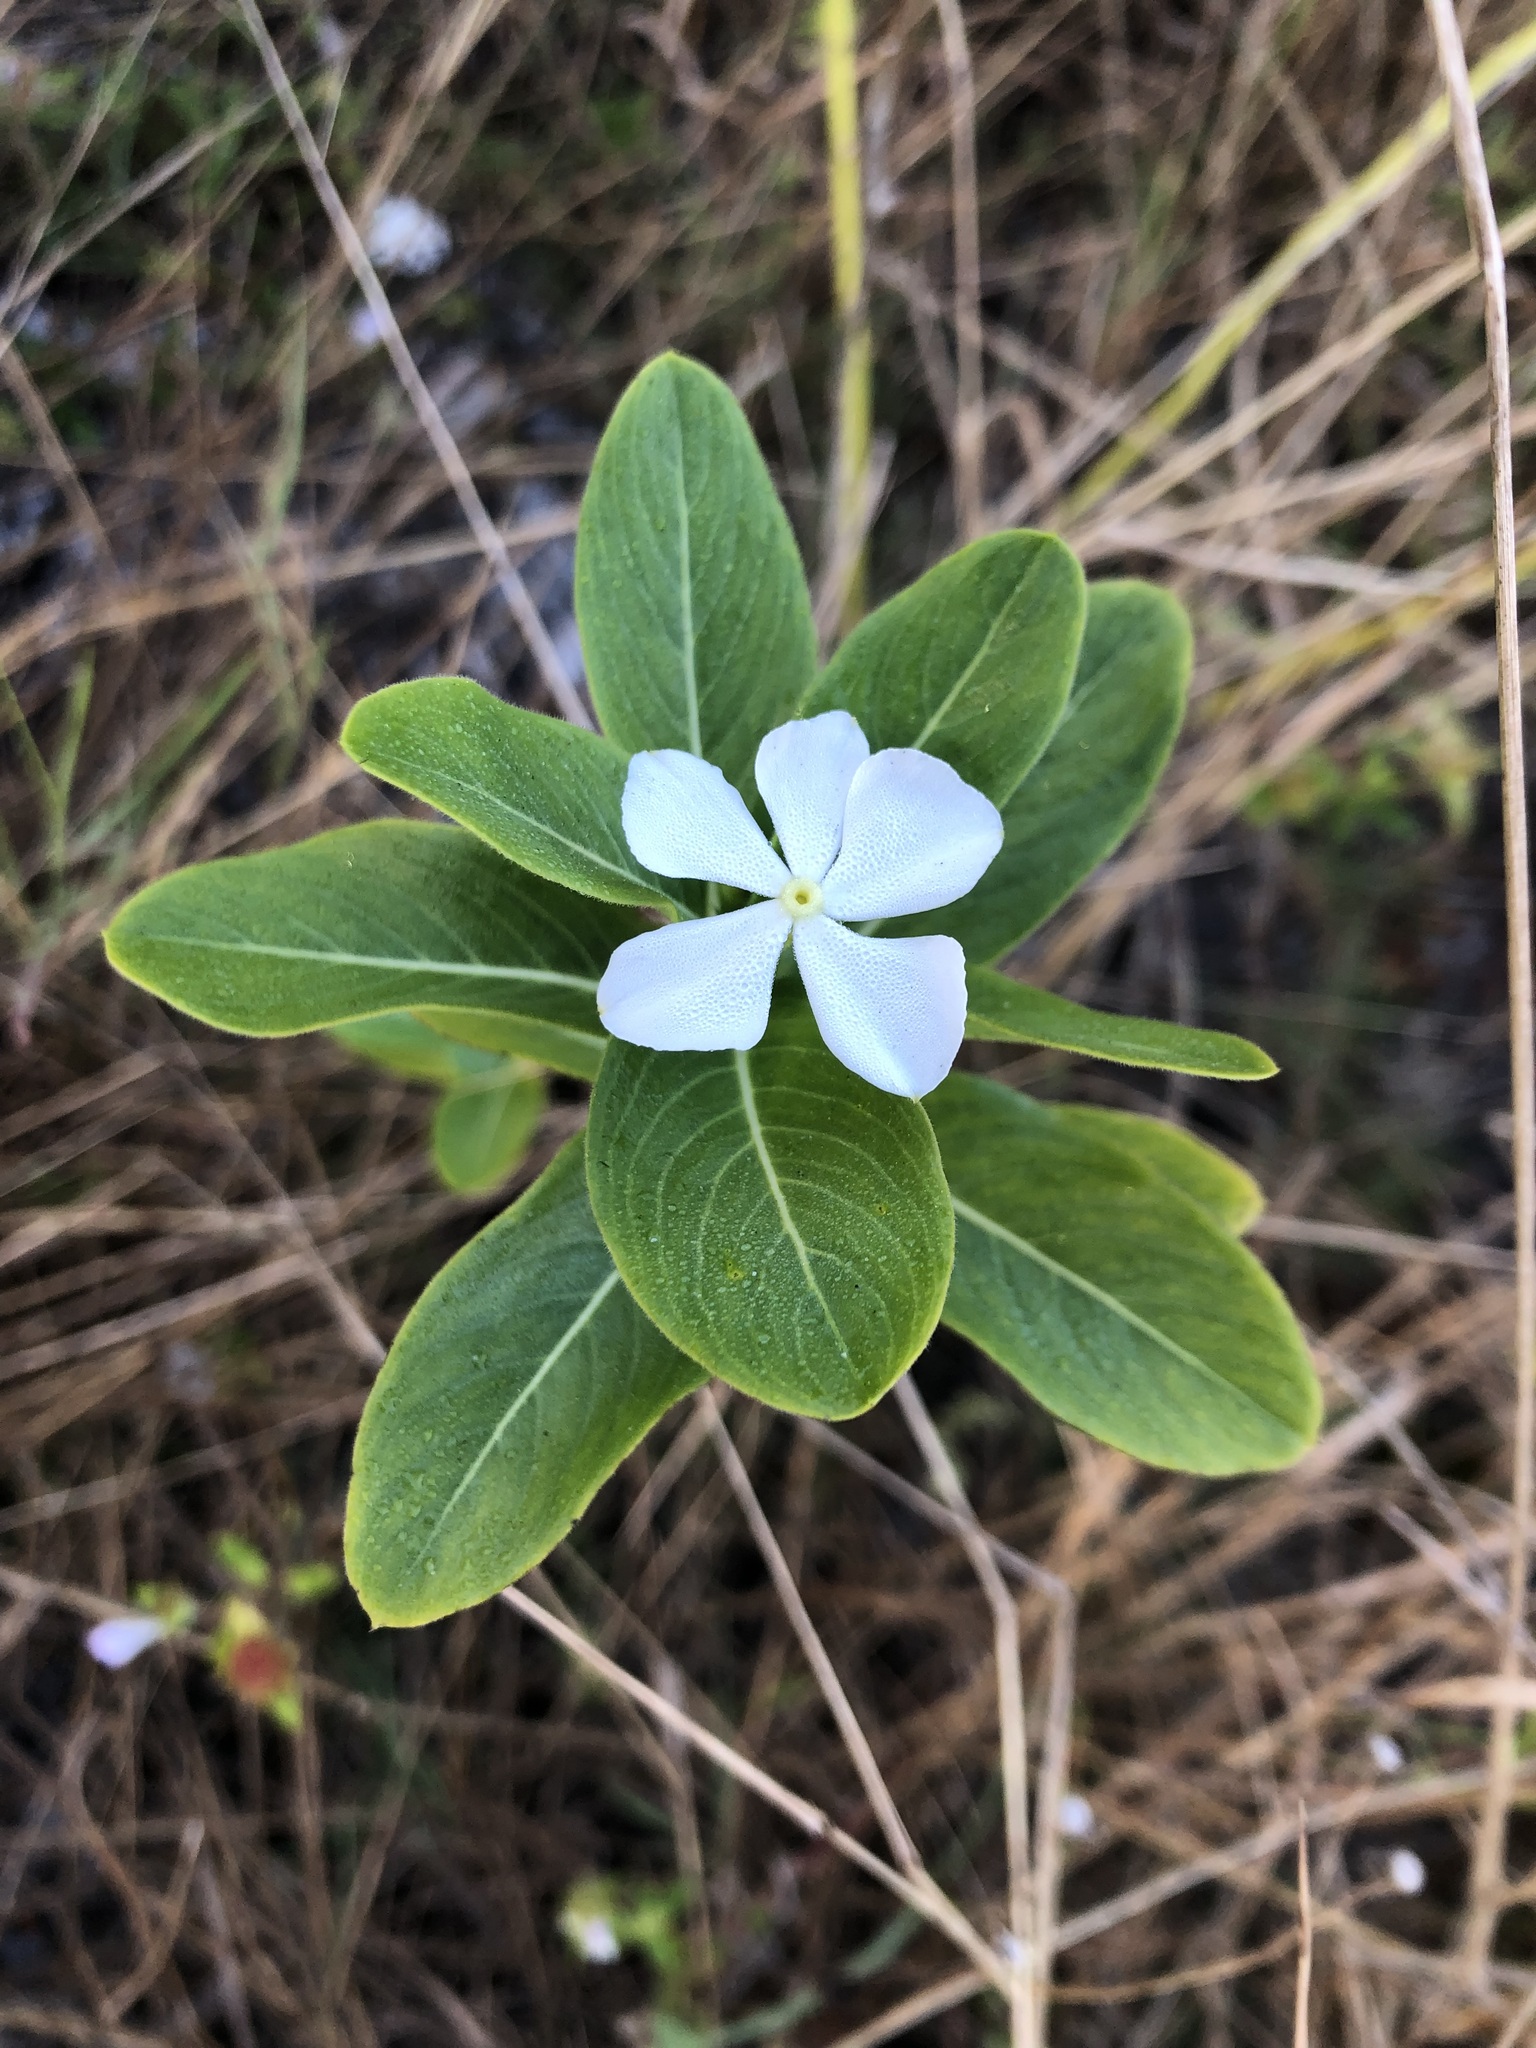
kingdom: Plantae
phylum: Tracheophyta
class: Magnoliopsida
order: Gentianales
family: Apocynaceae
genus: Catharanthus
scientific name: Catharanthus roseus
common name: Madagascar periwinkle
